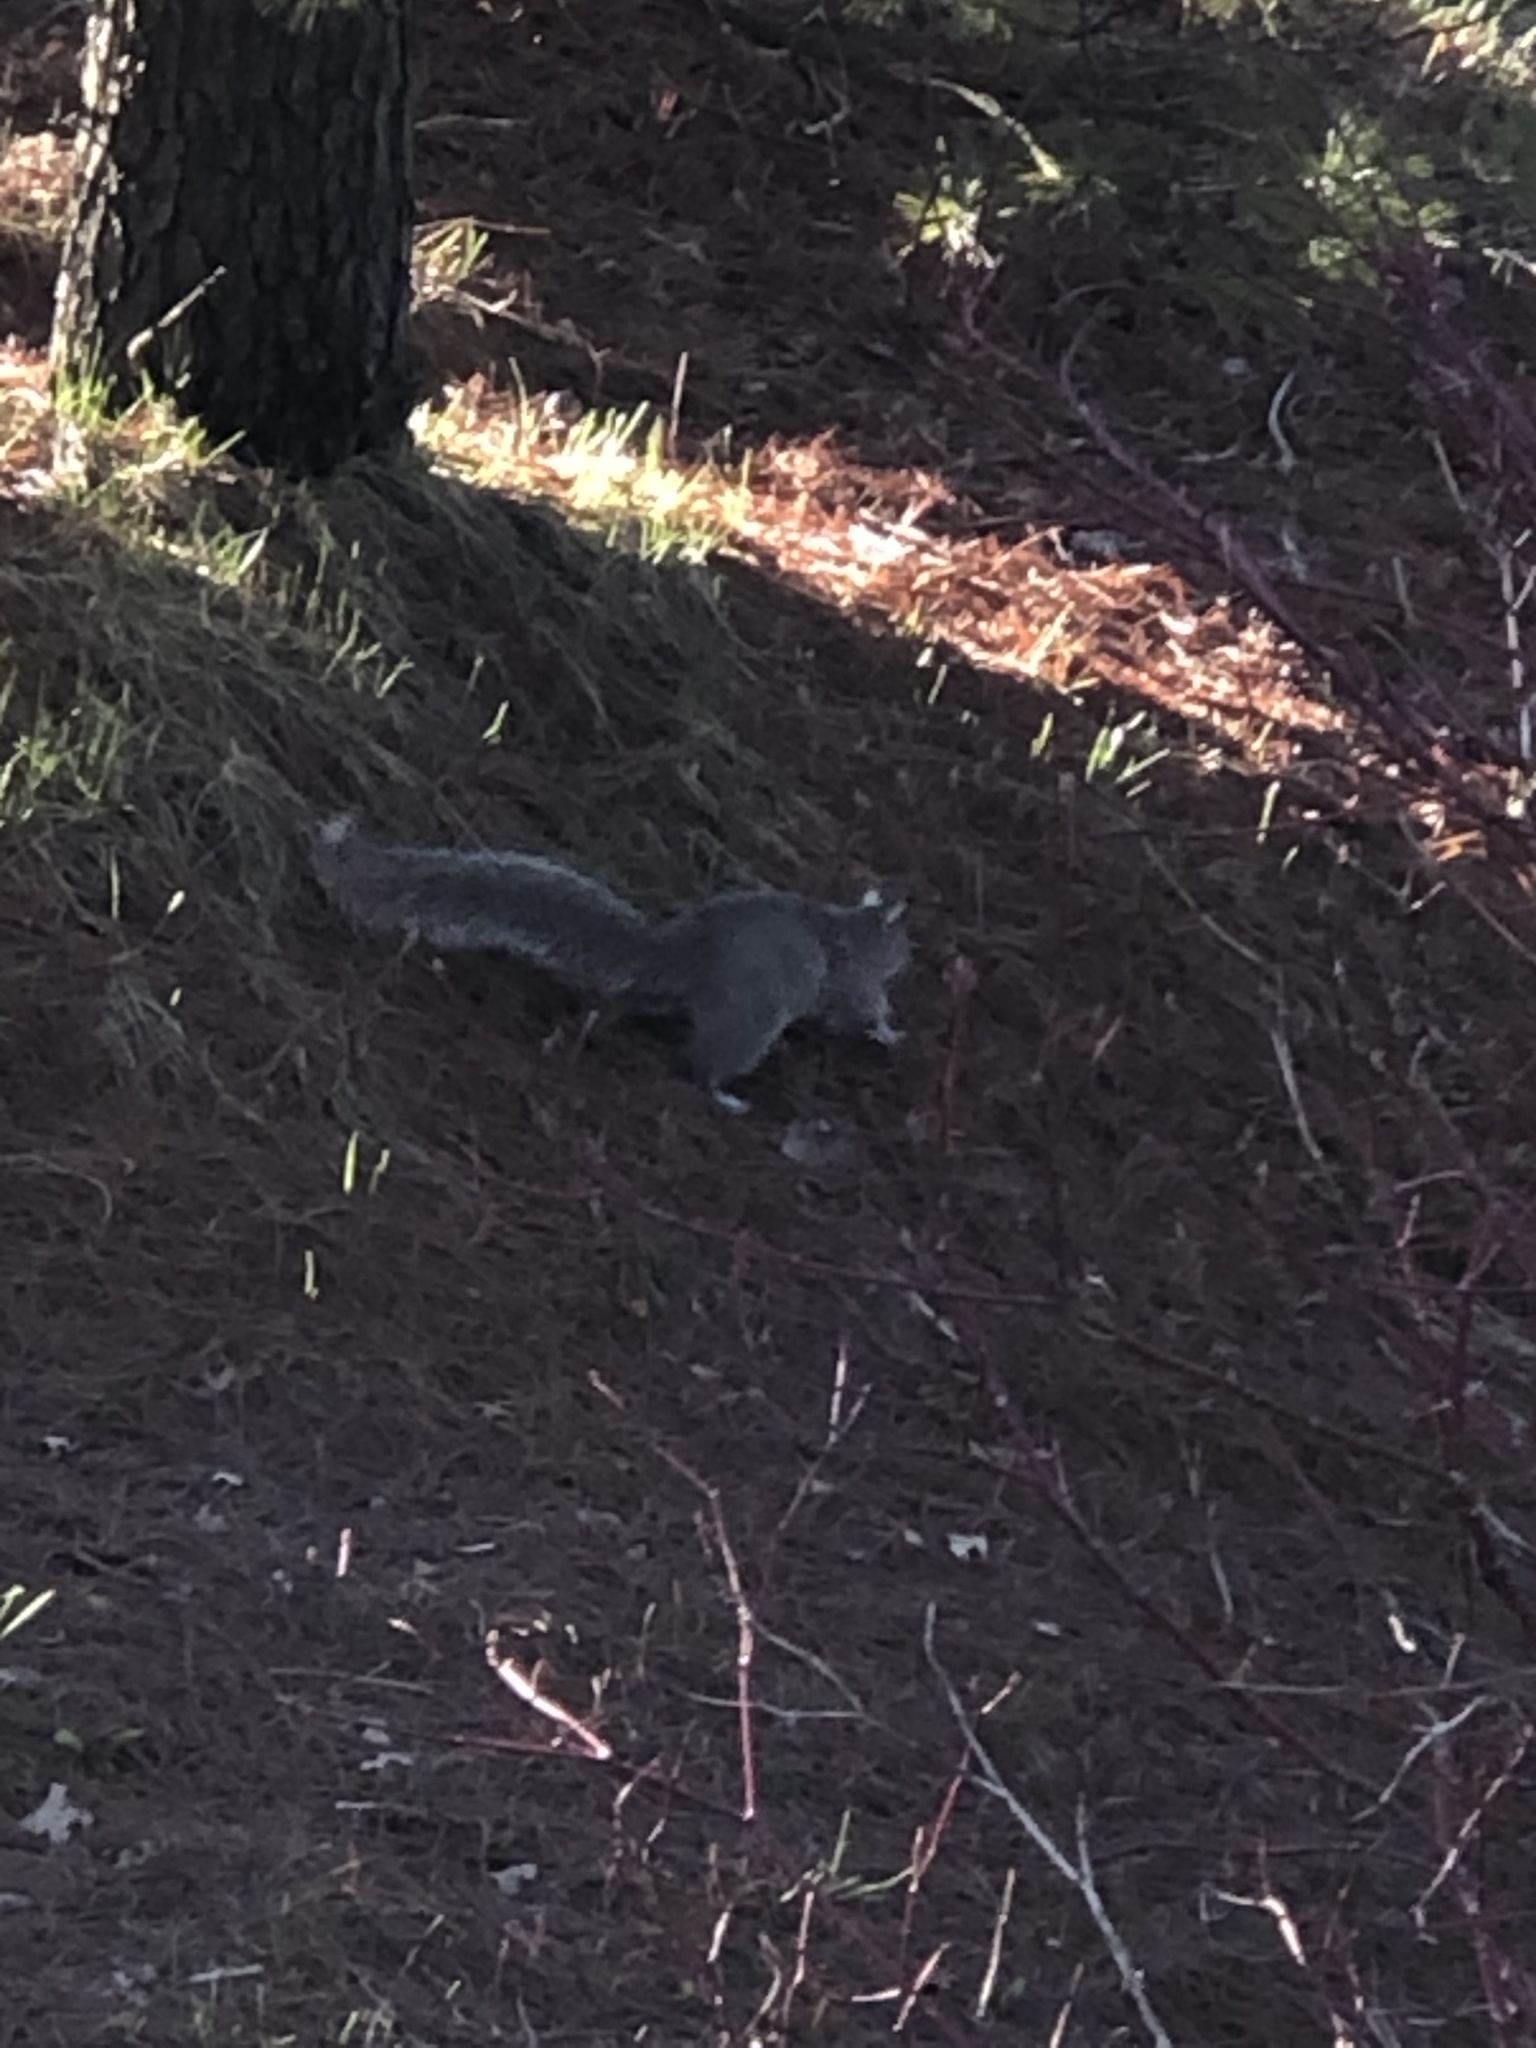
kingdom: Animalia
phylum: Chordata
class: Mammalia
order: Rodentia
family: Sciuridae
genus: Sciurus
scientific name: Sciurus carolinensis
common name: Eastern gray squirrel
